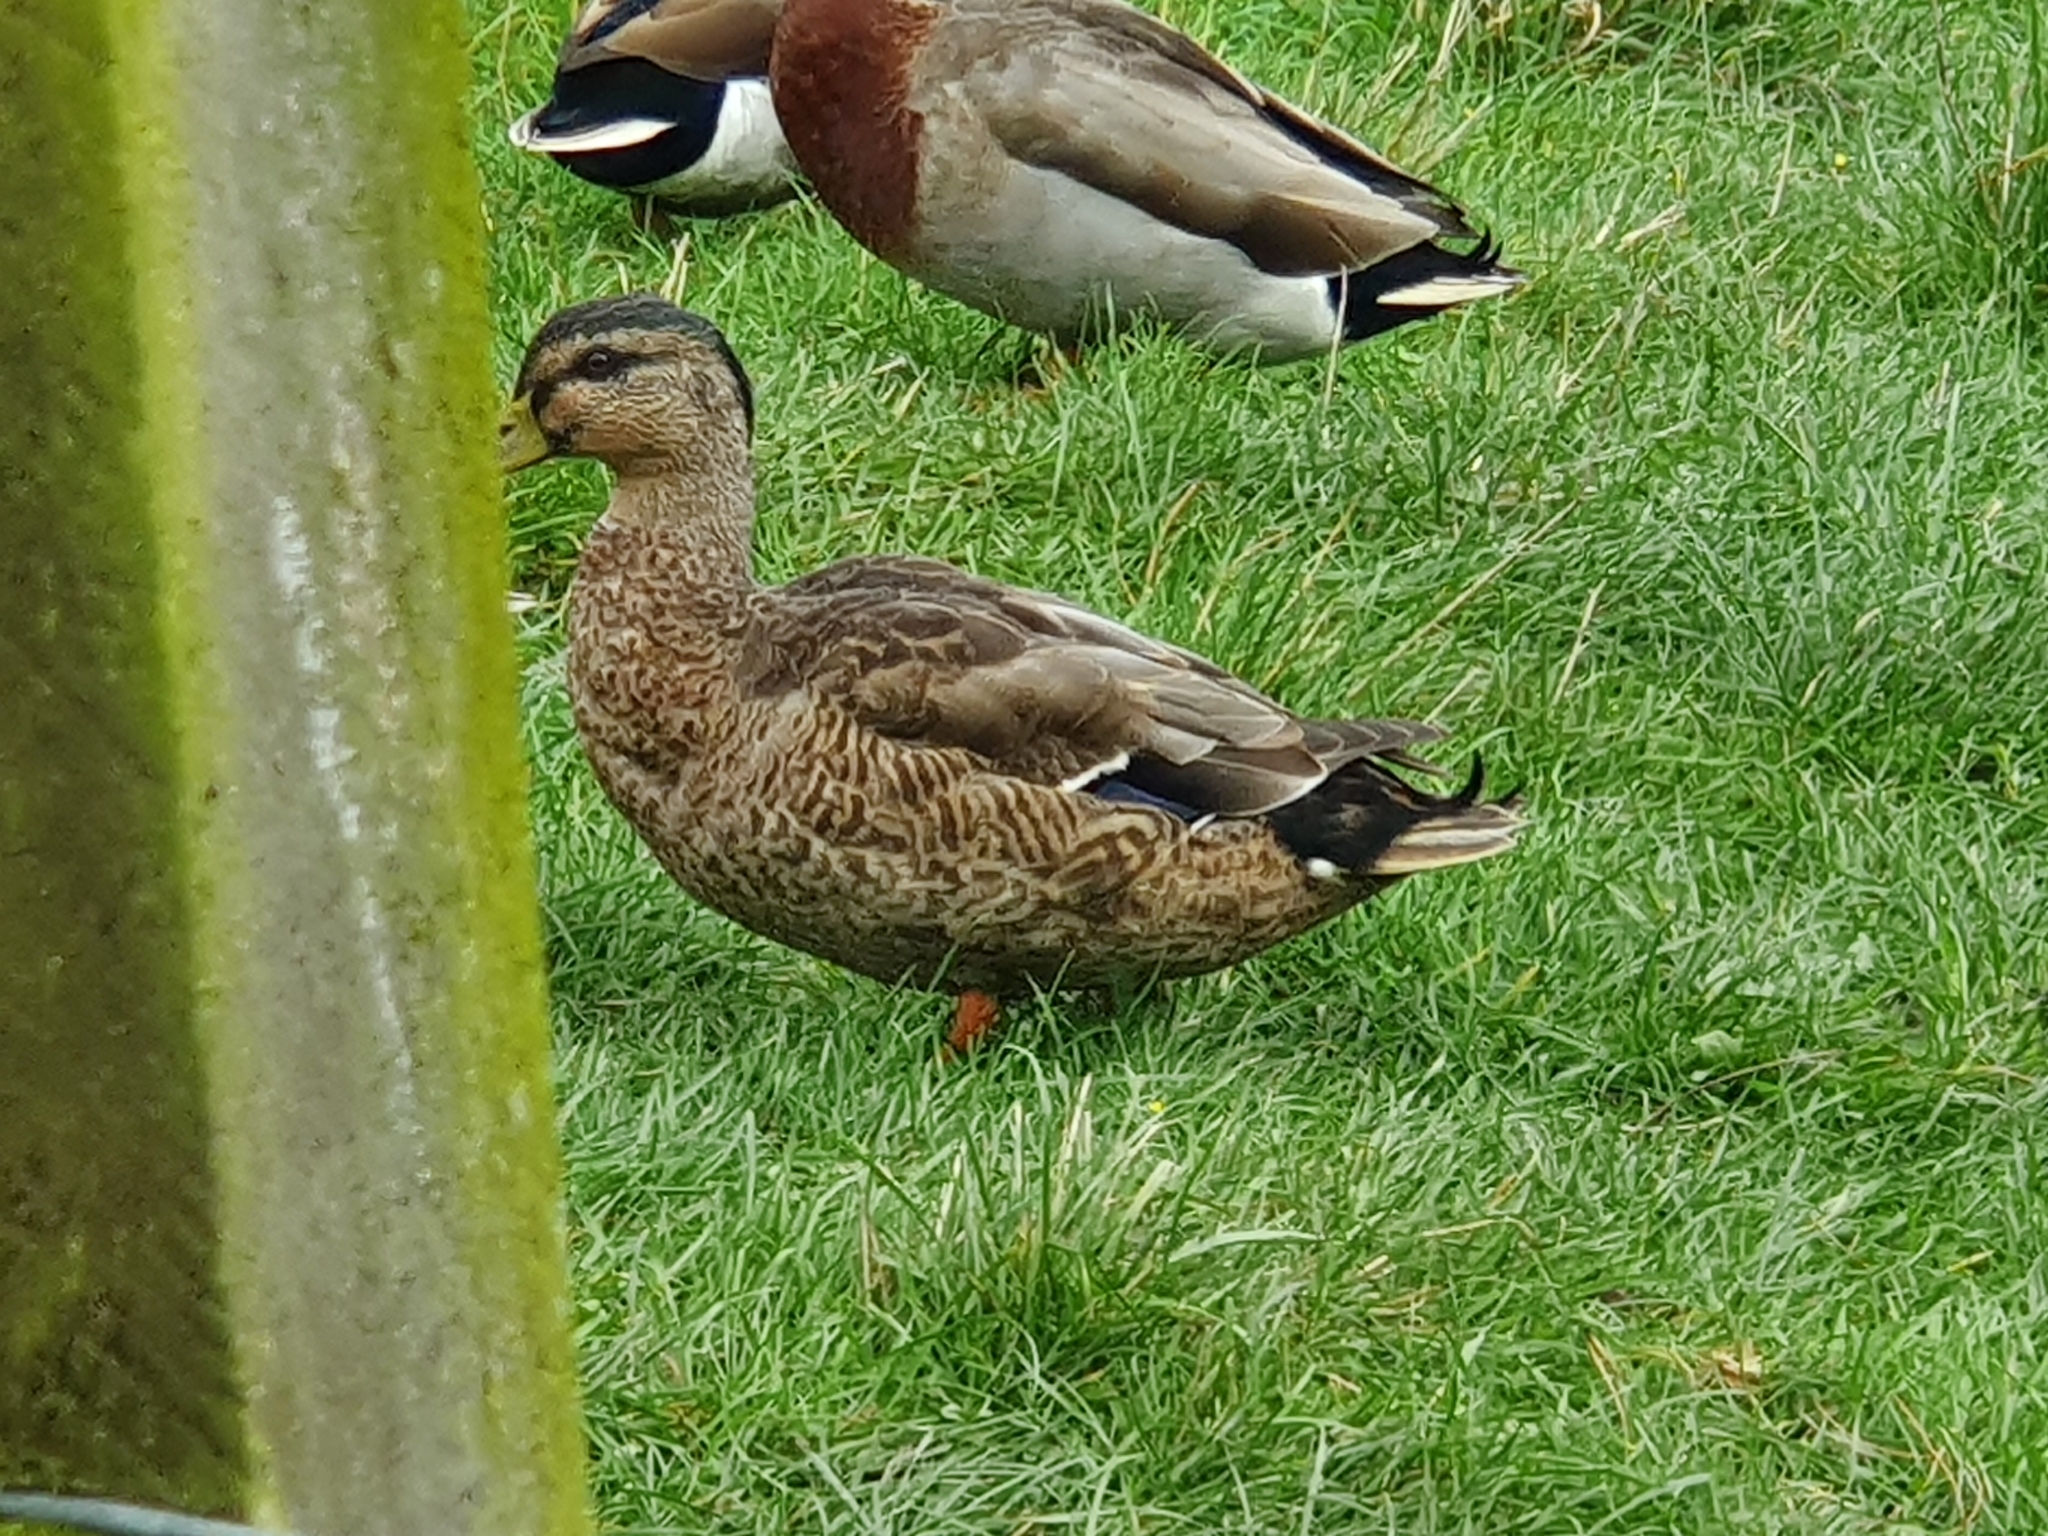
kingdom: Animalia
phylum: Chordata
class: Aves
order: Anseriformes
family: Anatidae
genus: Anas
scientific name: Anas
